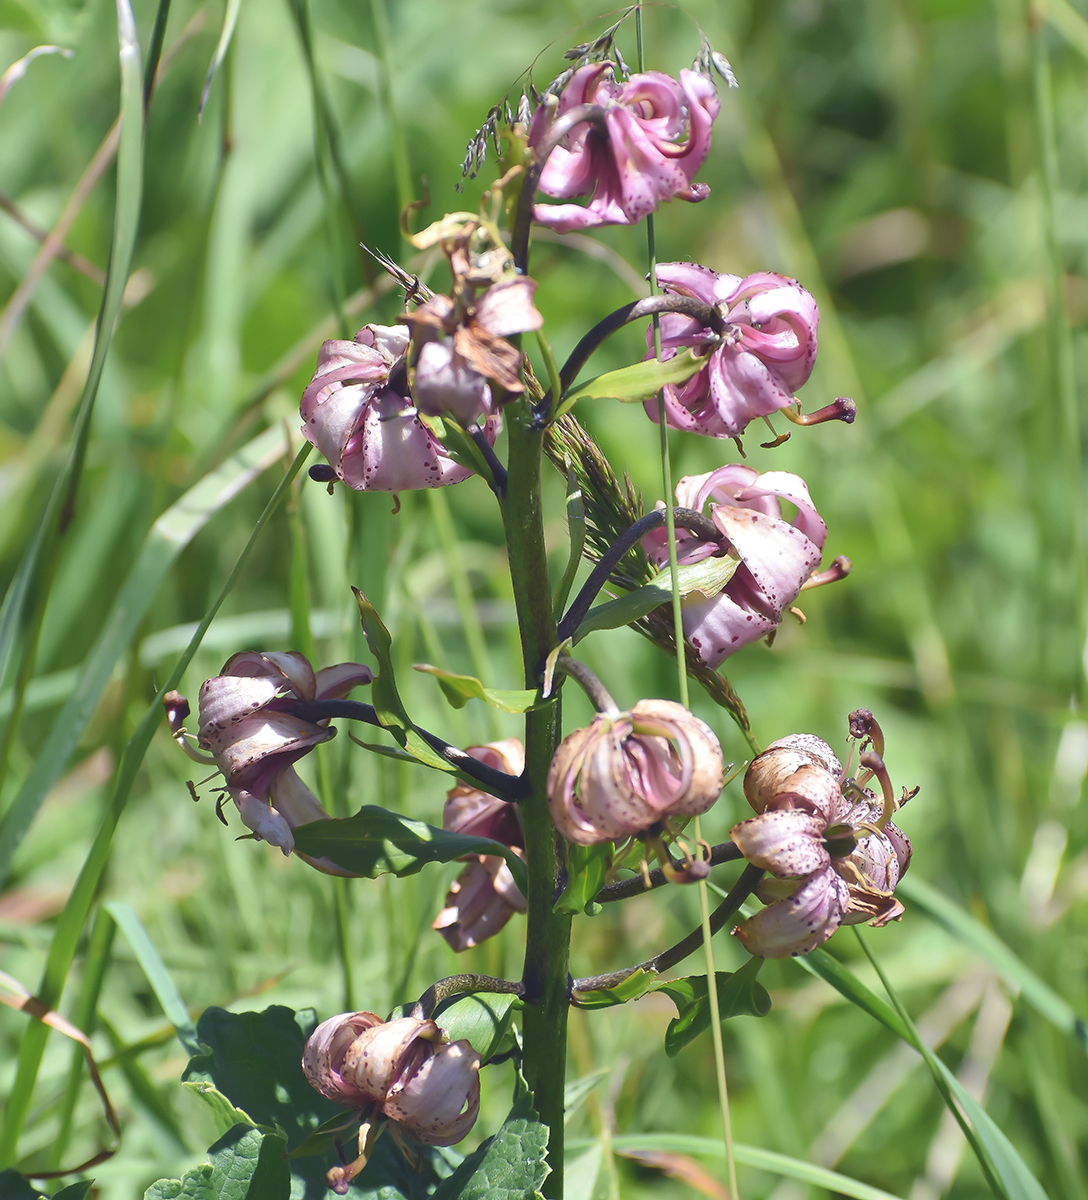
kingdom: Plantae
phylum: Tracheophyta
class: Liliopsida
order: Liliales
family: Liliaceae
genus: Lilium
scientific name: Lilium martagon
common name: Martagon lily
